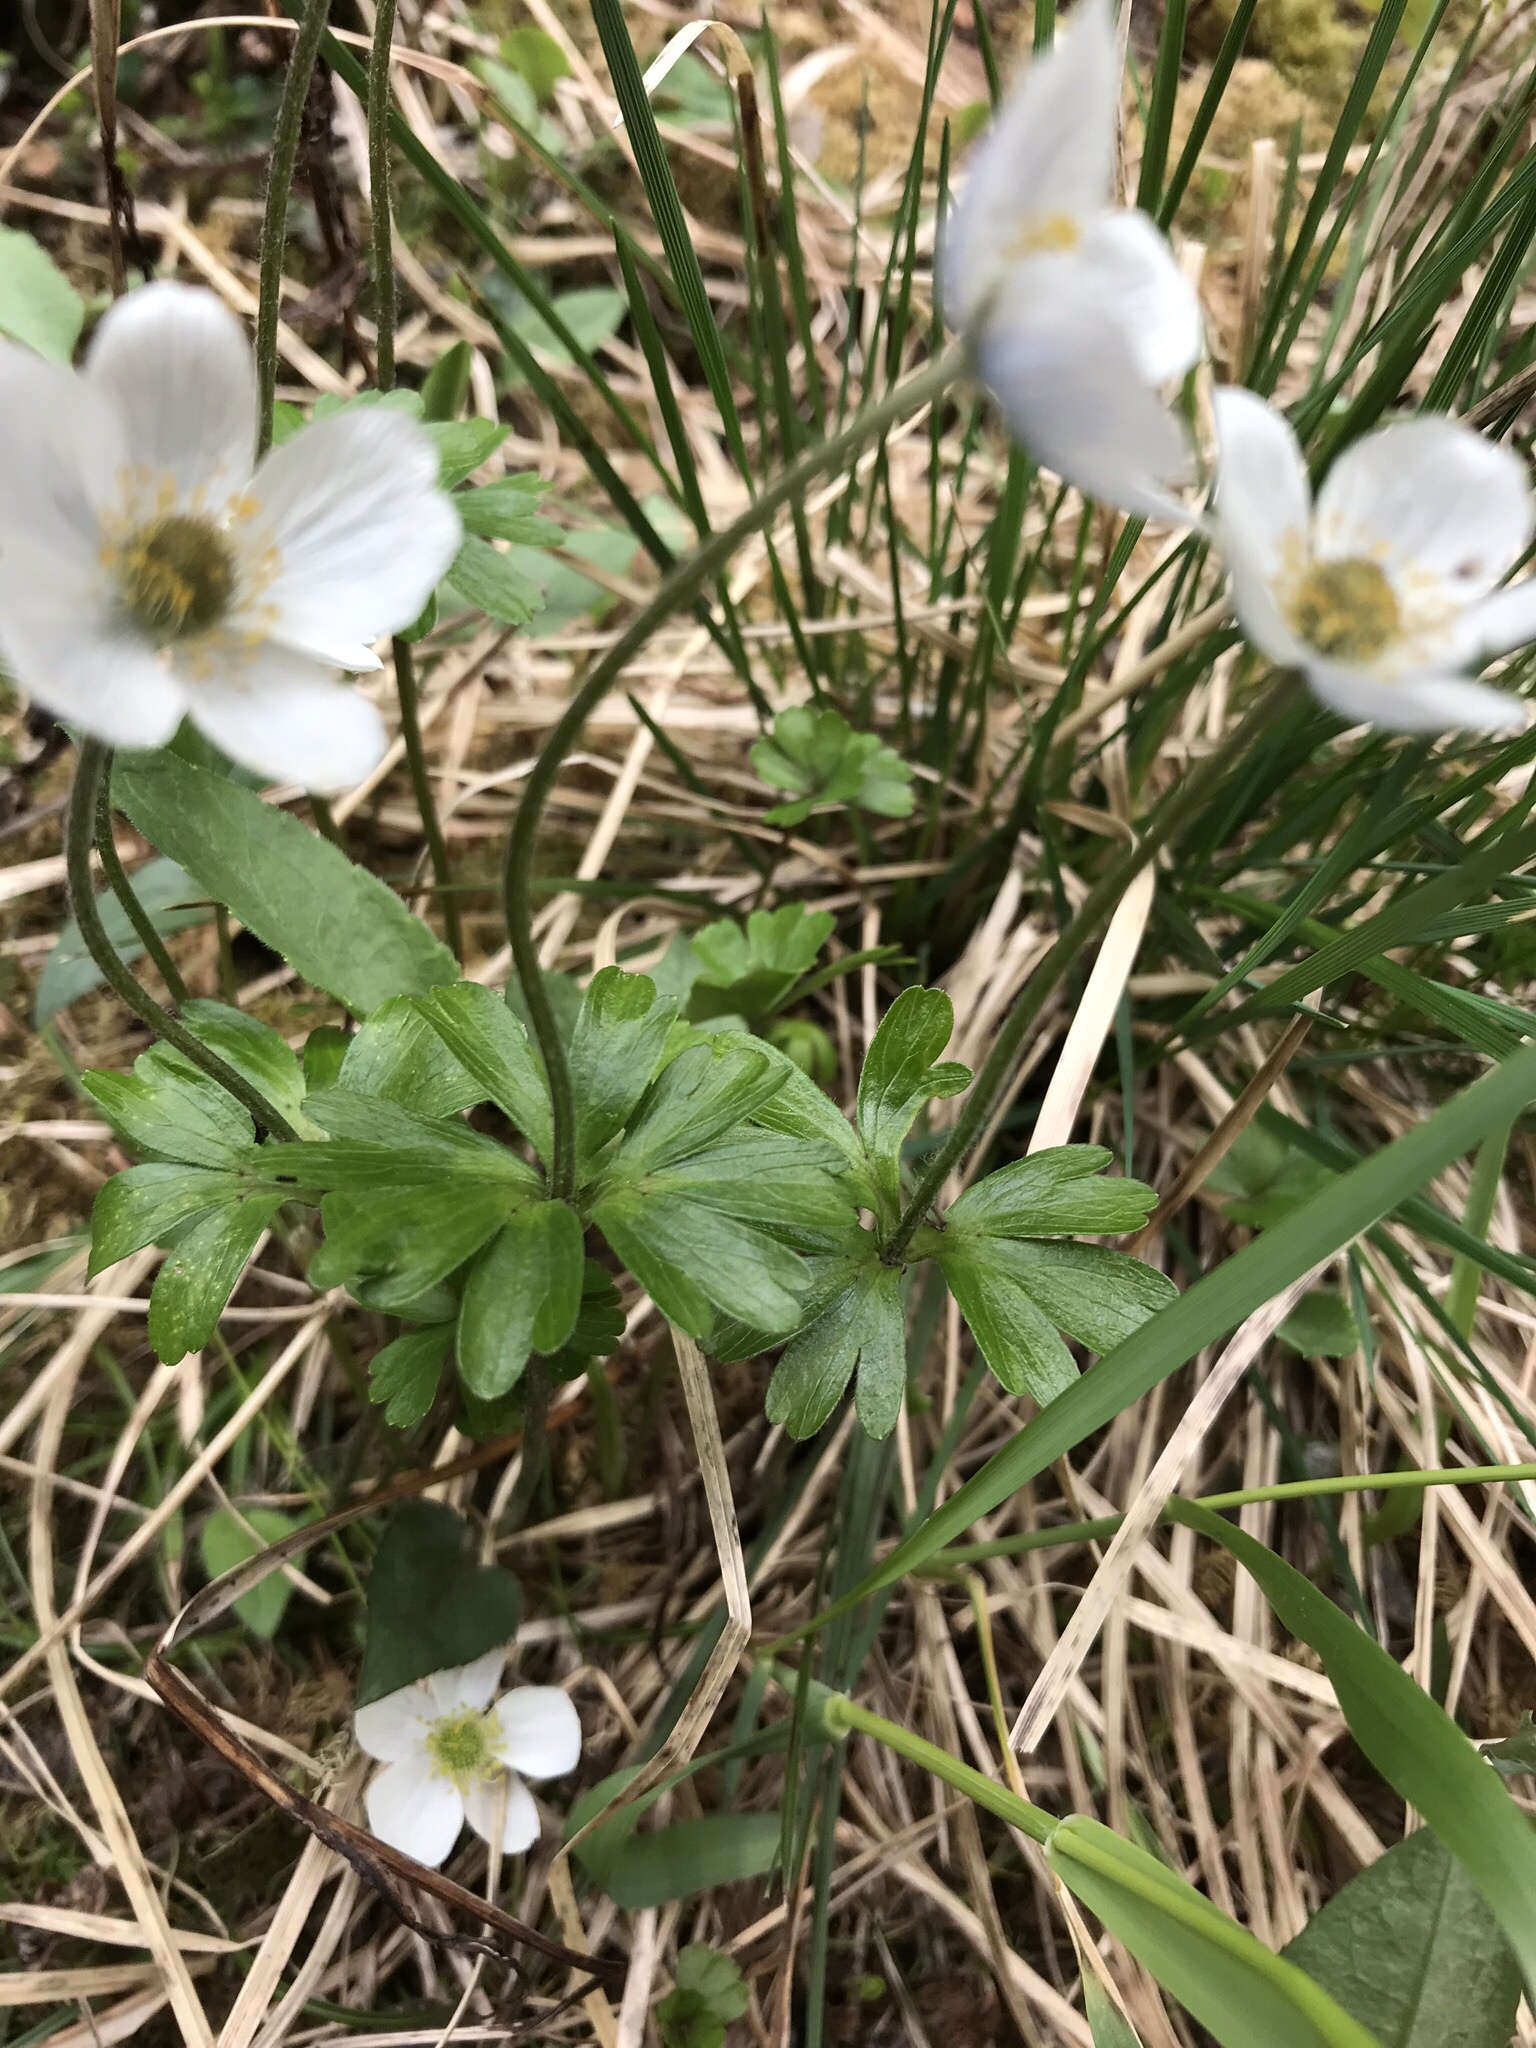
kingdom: Plantae
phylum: Tracheophyta
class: Magnoliopsida
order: Ranunculales
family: Ranunculaceae
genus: Anemone
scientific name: Anemone parviflora
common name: Northern anemone
